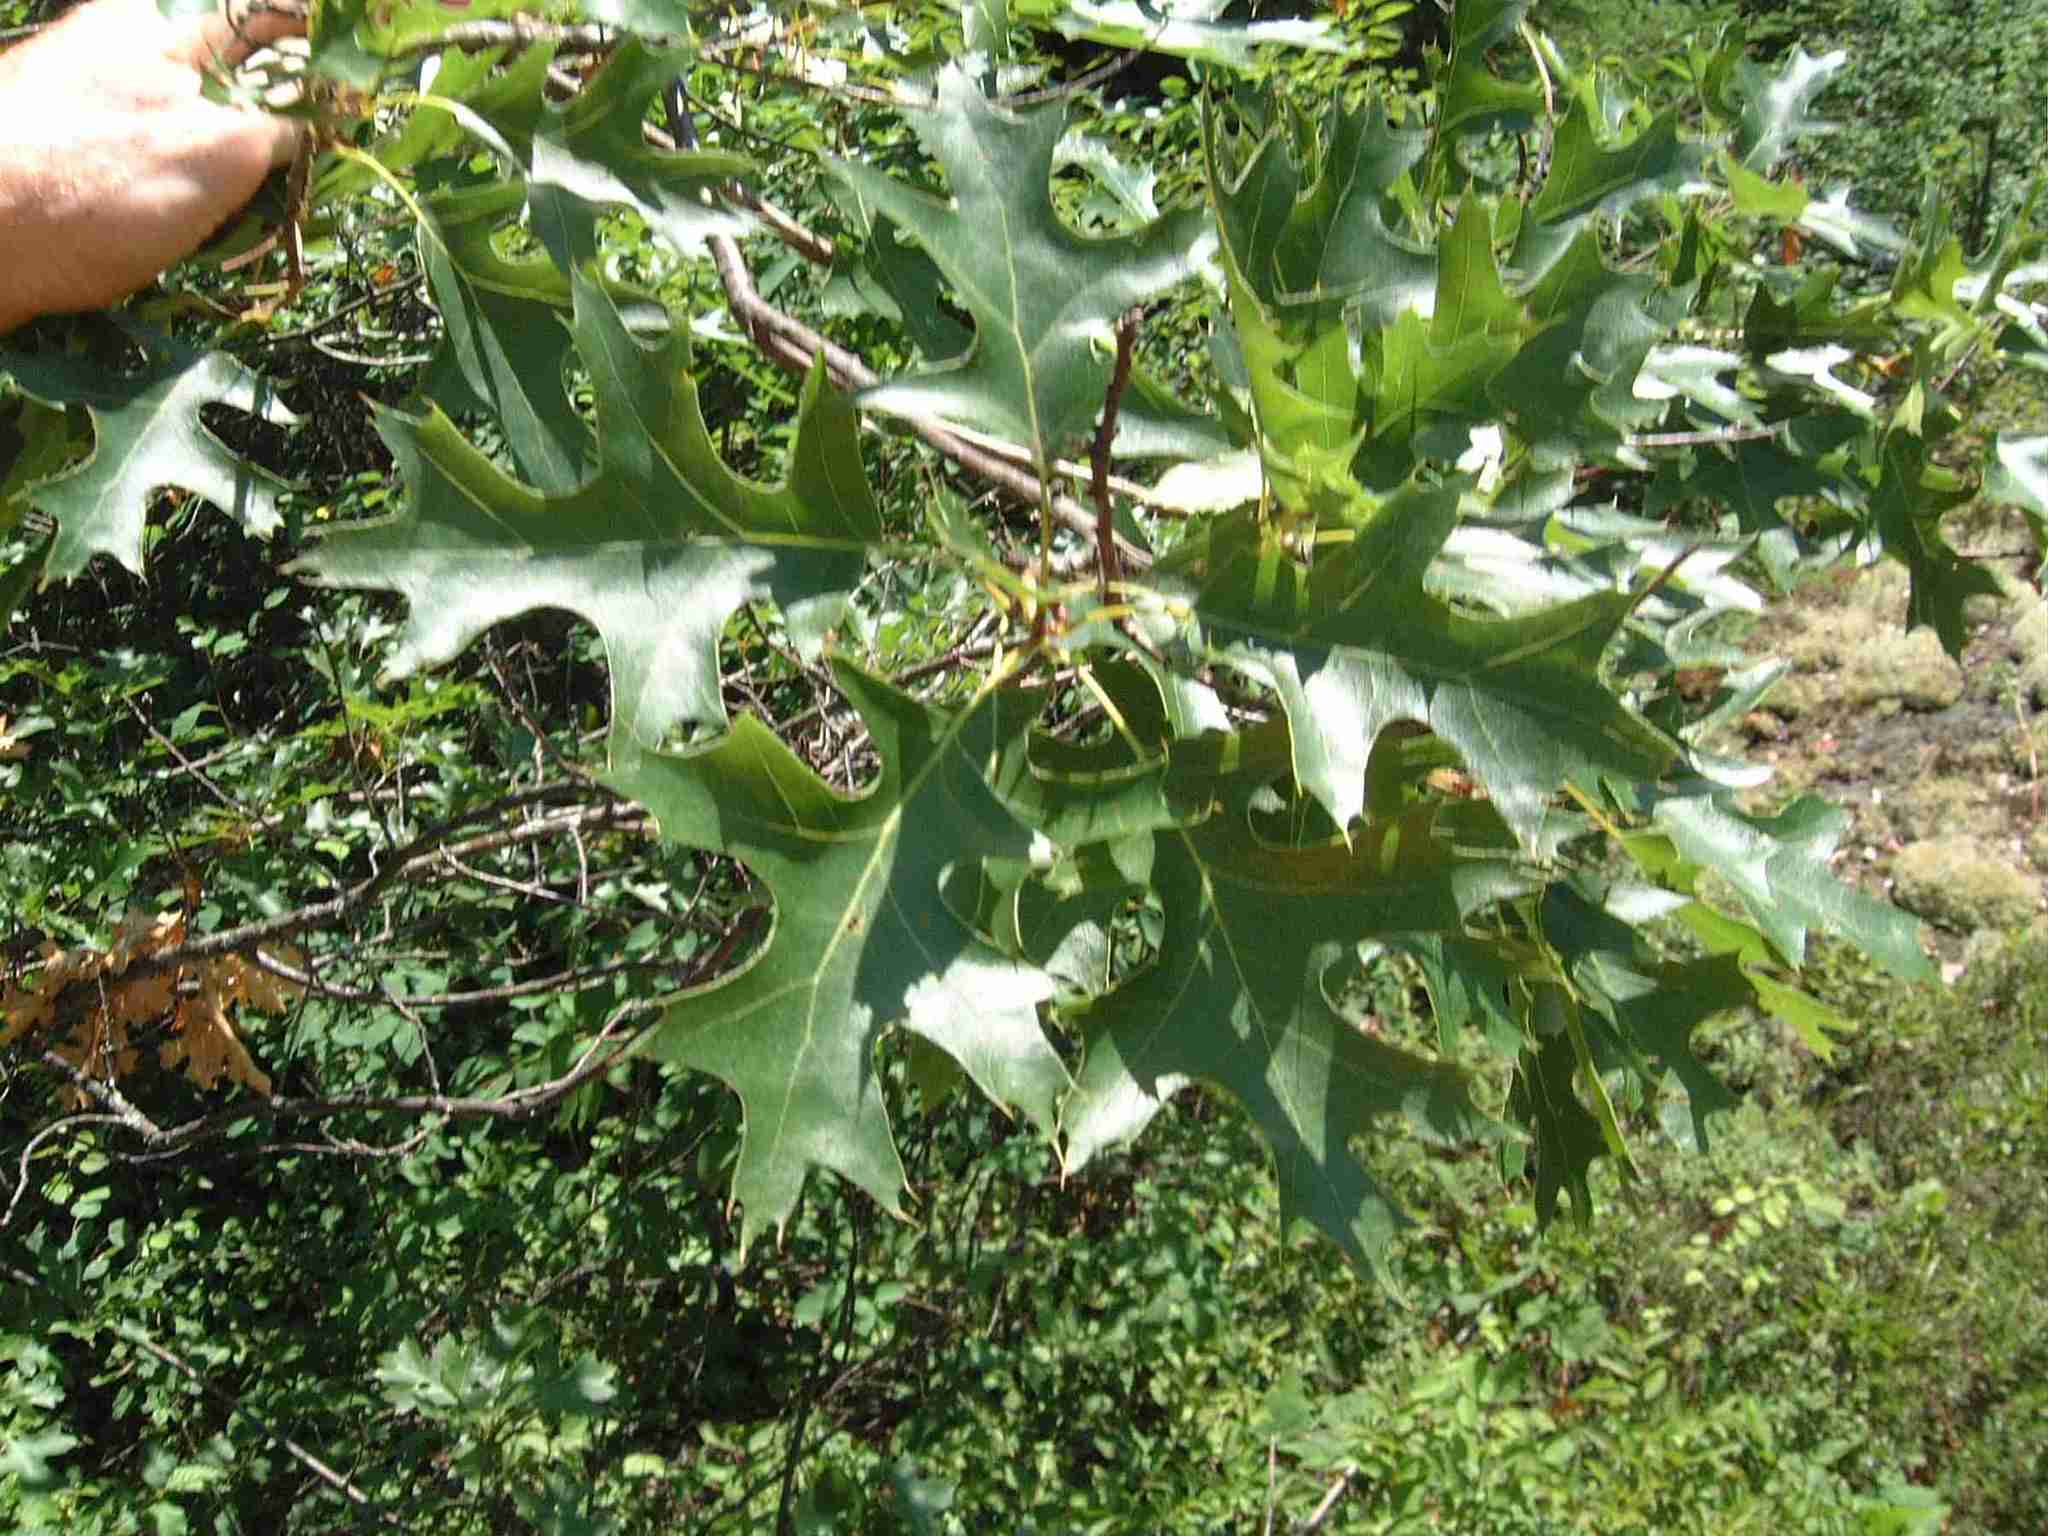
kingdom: Plantae
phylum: Tracheophyta
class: Magnoliopsida
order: Fagales
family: Fagaceae
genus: Quercus
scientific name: Quercus ellipsoidalis
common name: Hill's oak
